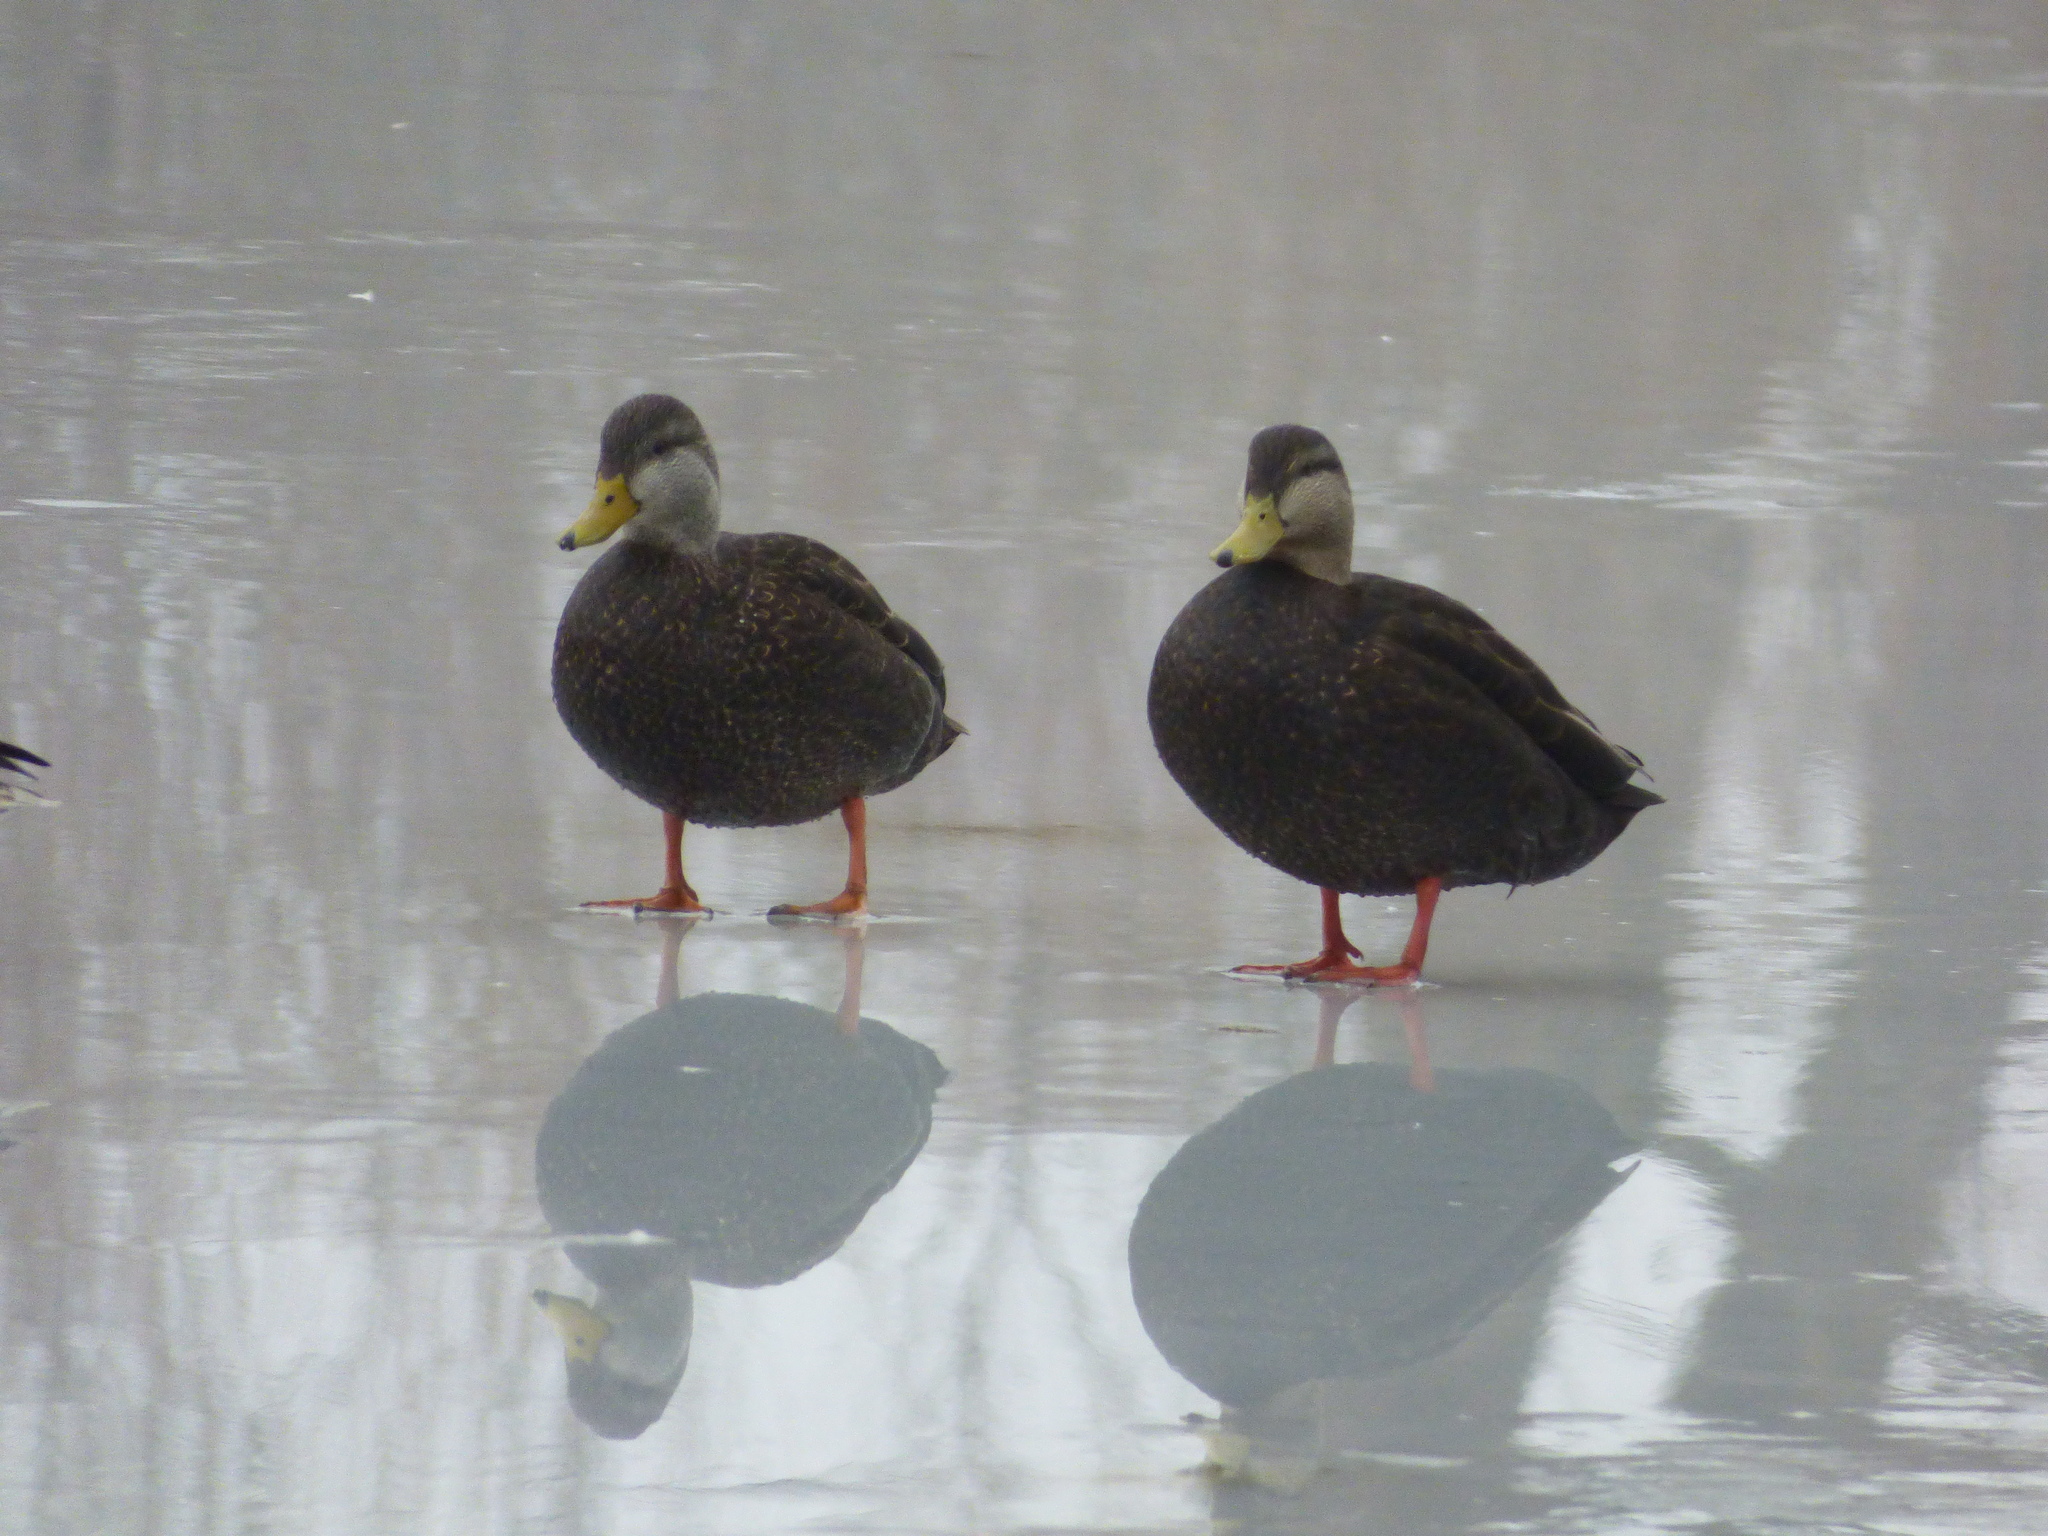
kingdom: Animalia
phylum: Chordata
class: Aves
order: Anseriformes
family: Anatidae
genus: Anas
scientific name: Anas rubripes
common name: American black duck
